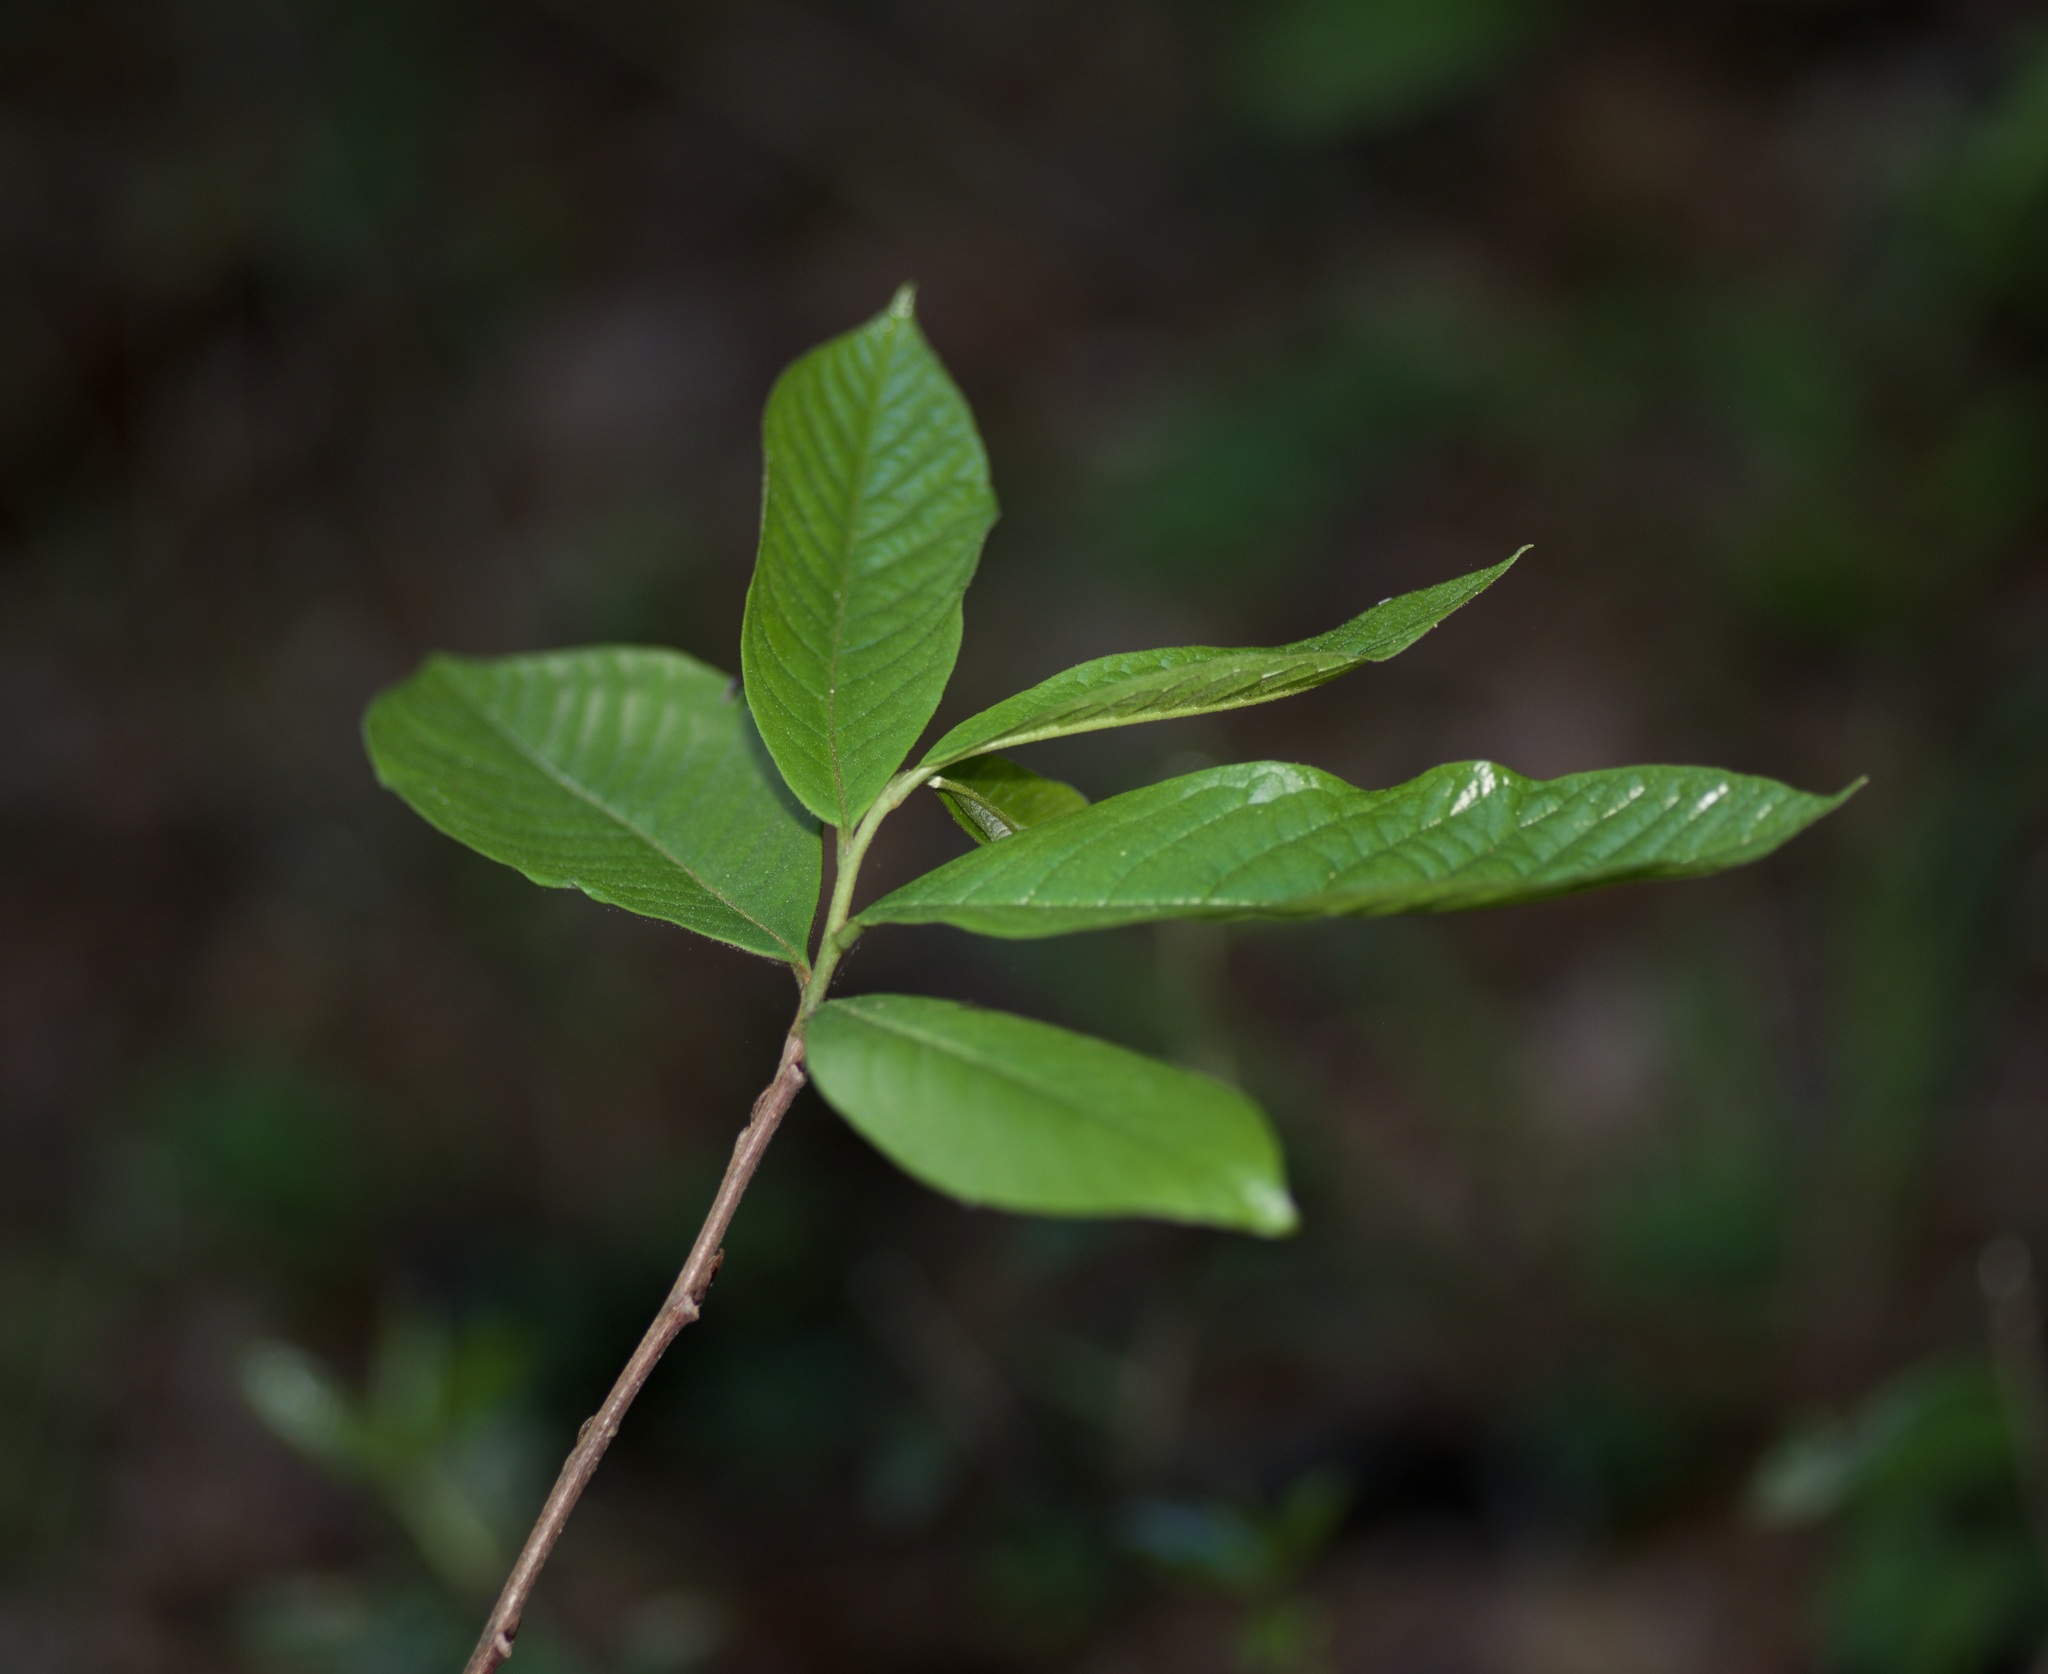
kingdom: Plantae
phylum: Tracheophyta
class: Magnoliopsida
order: Magnoliales
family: Annonaceae
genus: Asimina
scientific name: Asimina triloba
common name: Dog-banana
